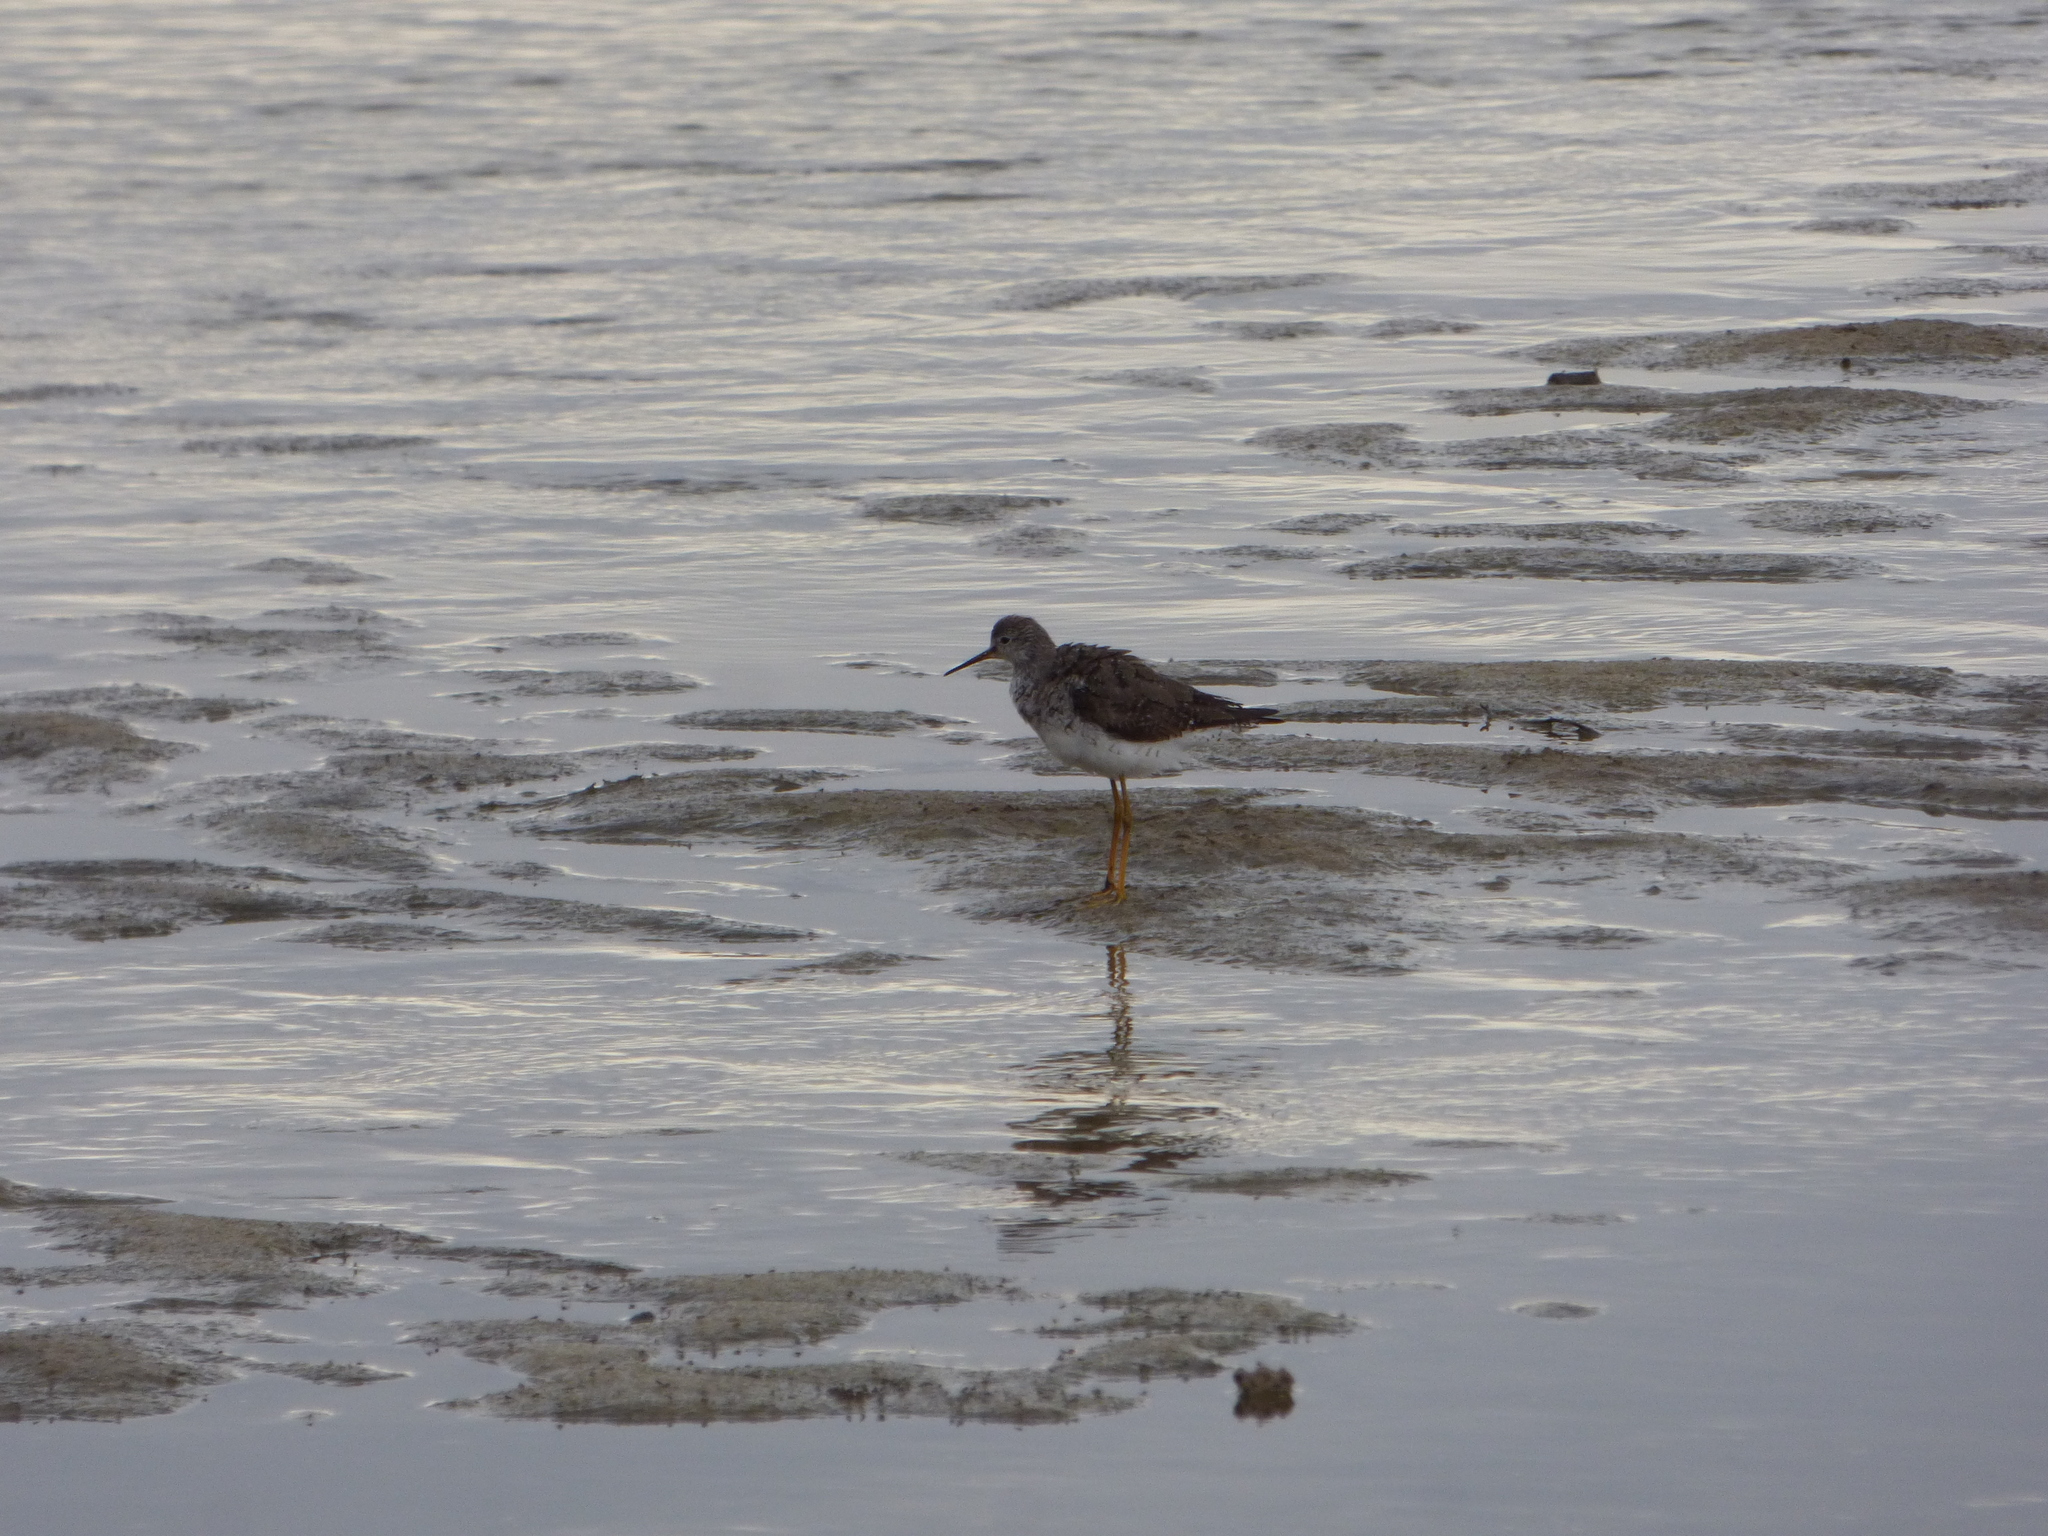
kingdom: Animalia
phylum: Chordata
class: Aves
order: Charadriiformes
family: Scolopacidae
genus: Tringa
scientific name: Tringa flavipes
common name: Lesser yellowlegs
